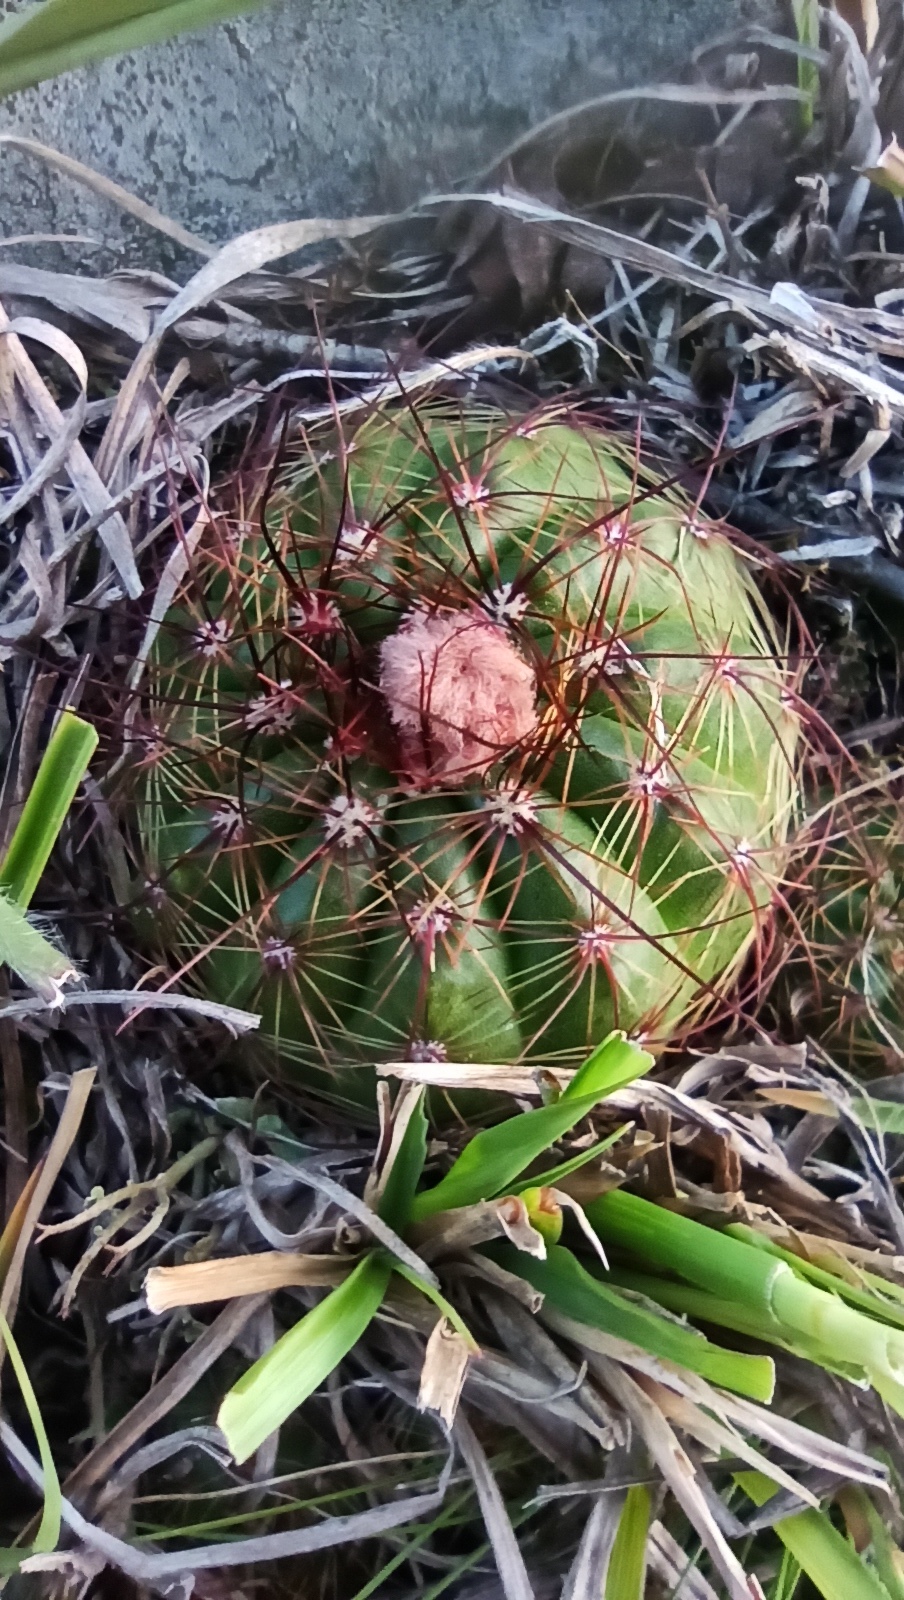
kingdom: Plantae
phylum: Tracheophyta
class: Magnoliopsida
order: Caryophyllales
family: Cactaceae
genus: Parodia
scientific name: Parodia ottonis
